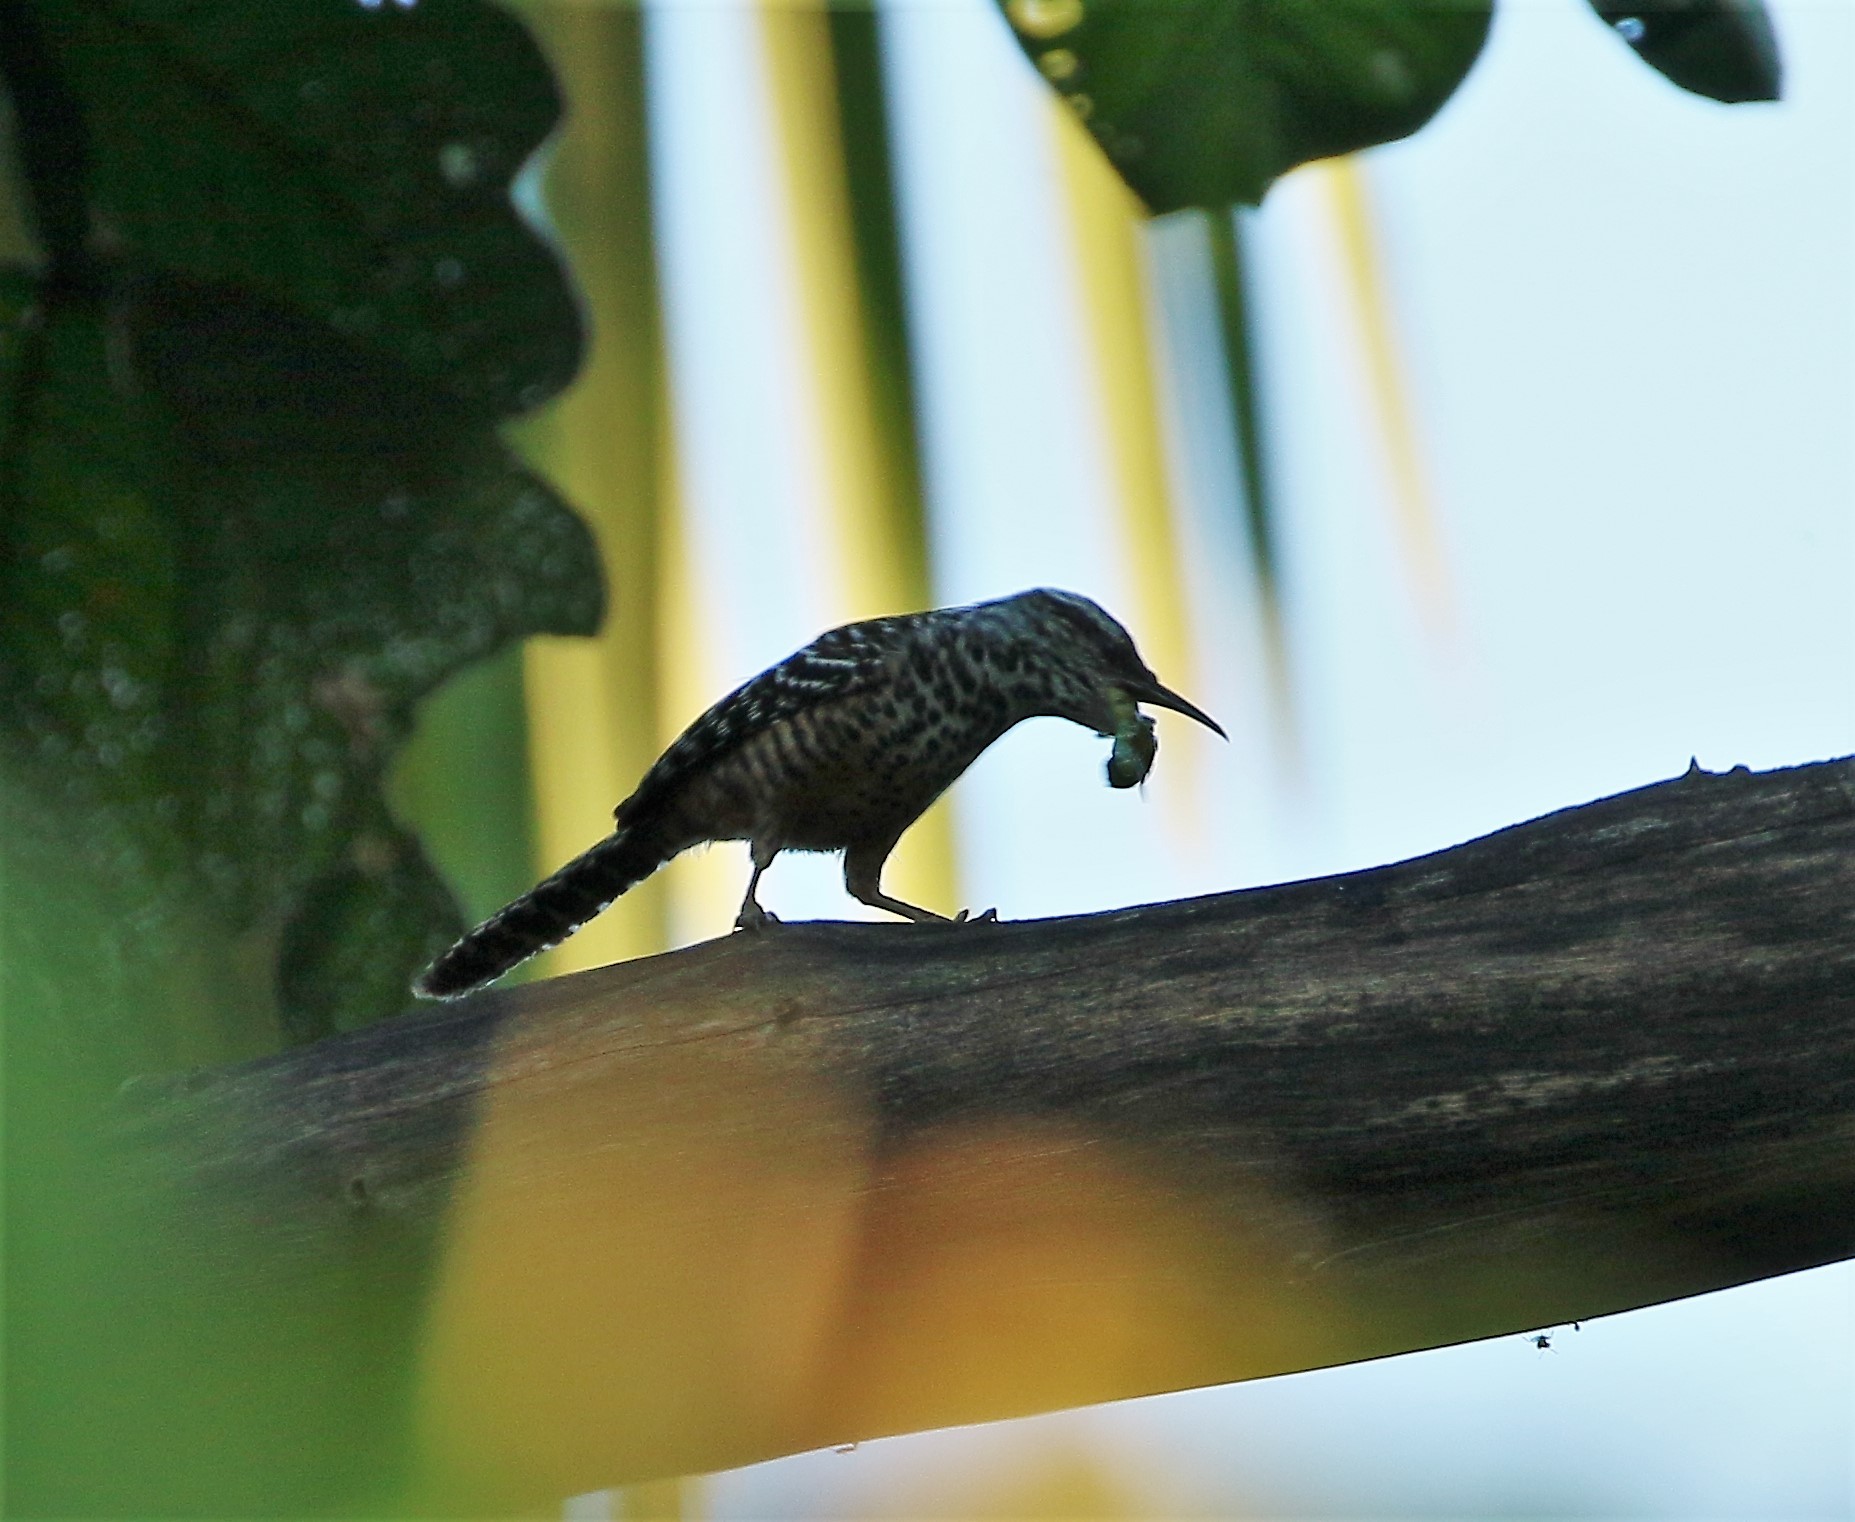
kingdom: Animalia
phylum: Chordata
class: Aves
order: Passeriformes
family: Troglodytidae
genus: Campylorhynchus
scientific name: Campylorhynchus zonatus
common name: Band-backed wren
